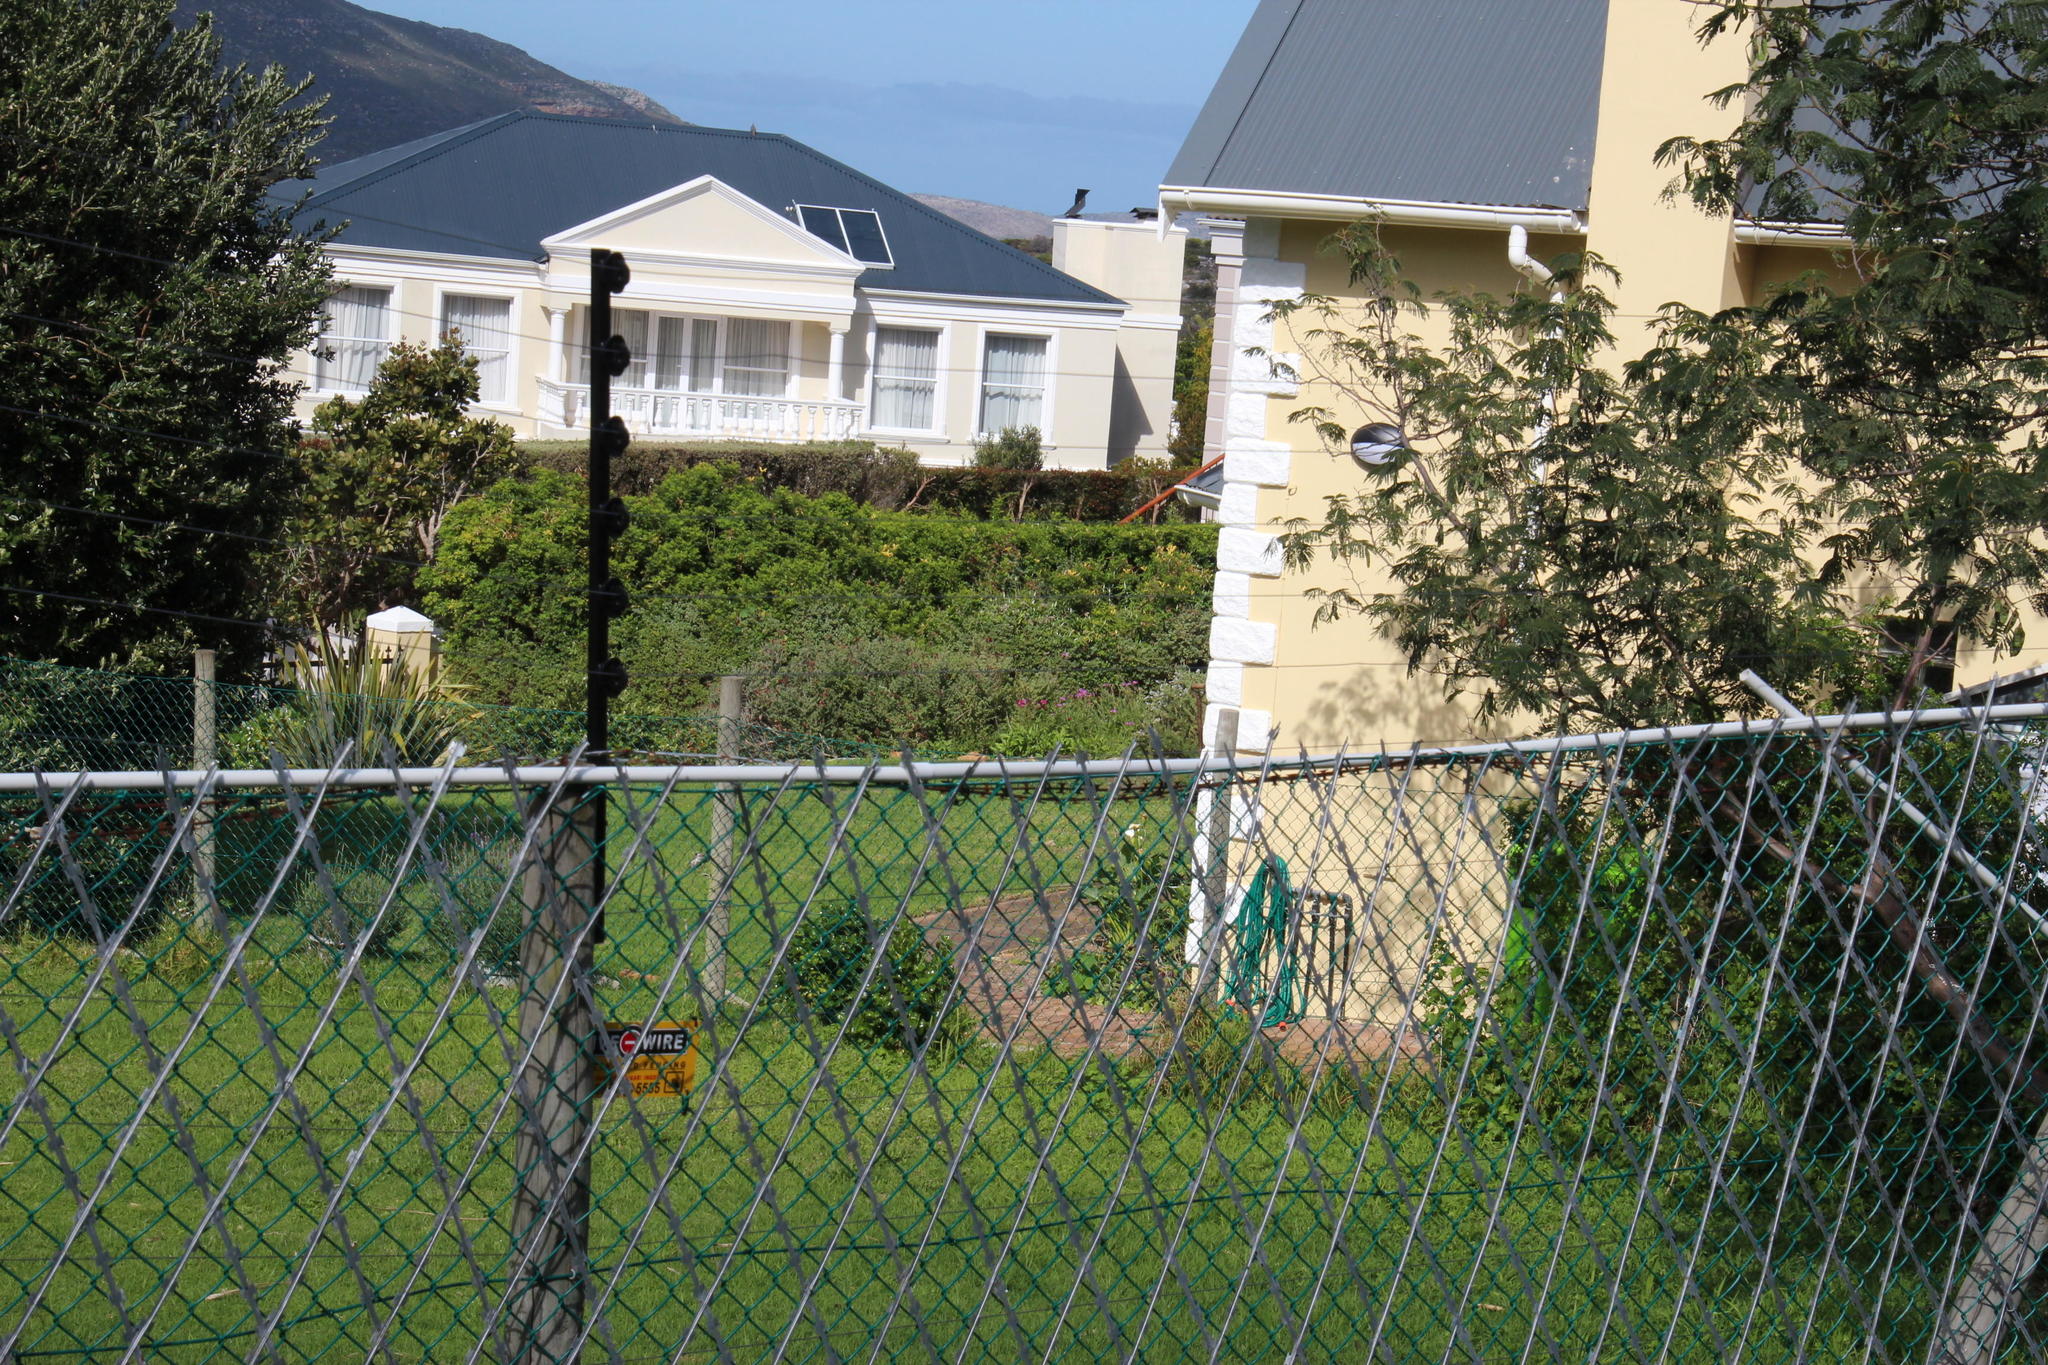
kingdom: Plantae
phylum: Tracheophyta
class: Magnoliopsida
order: Dipsacales
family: Caprifoliaceae
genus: Centranthus
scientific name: Centranthus ruber
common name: Red valerian
